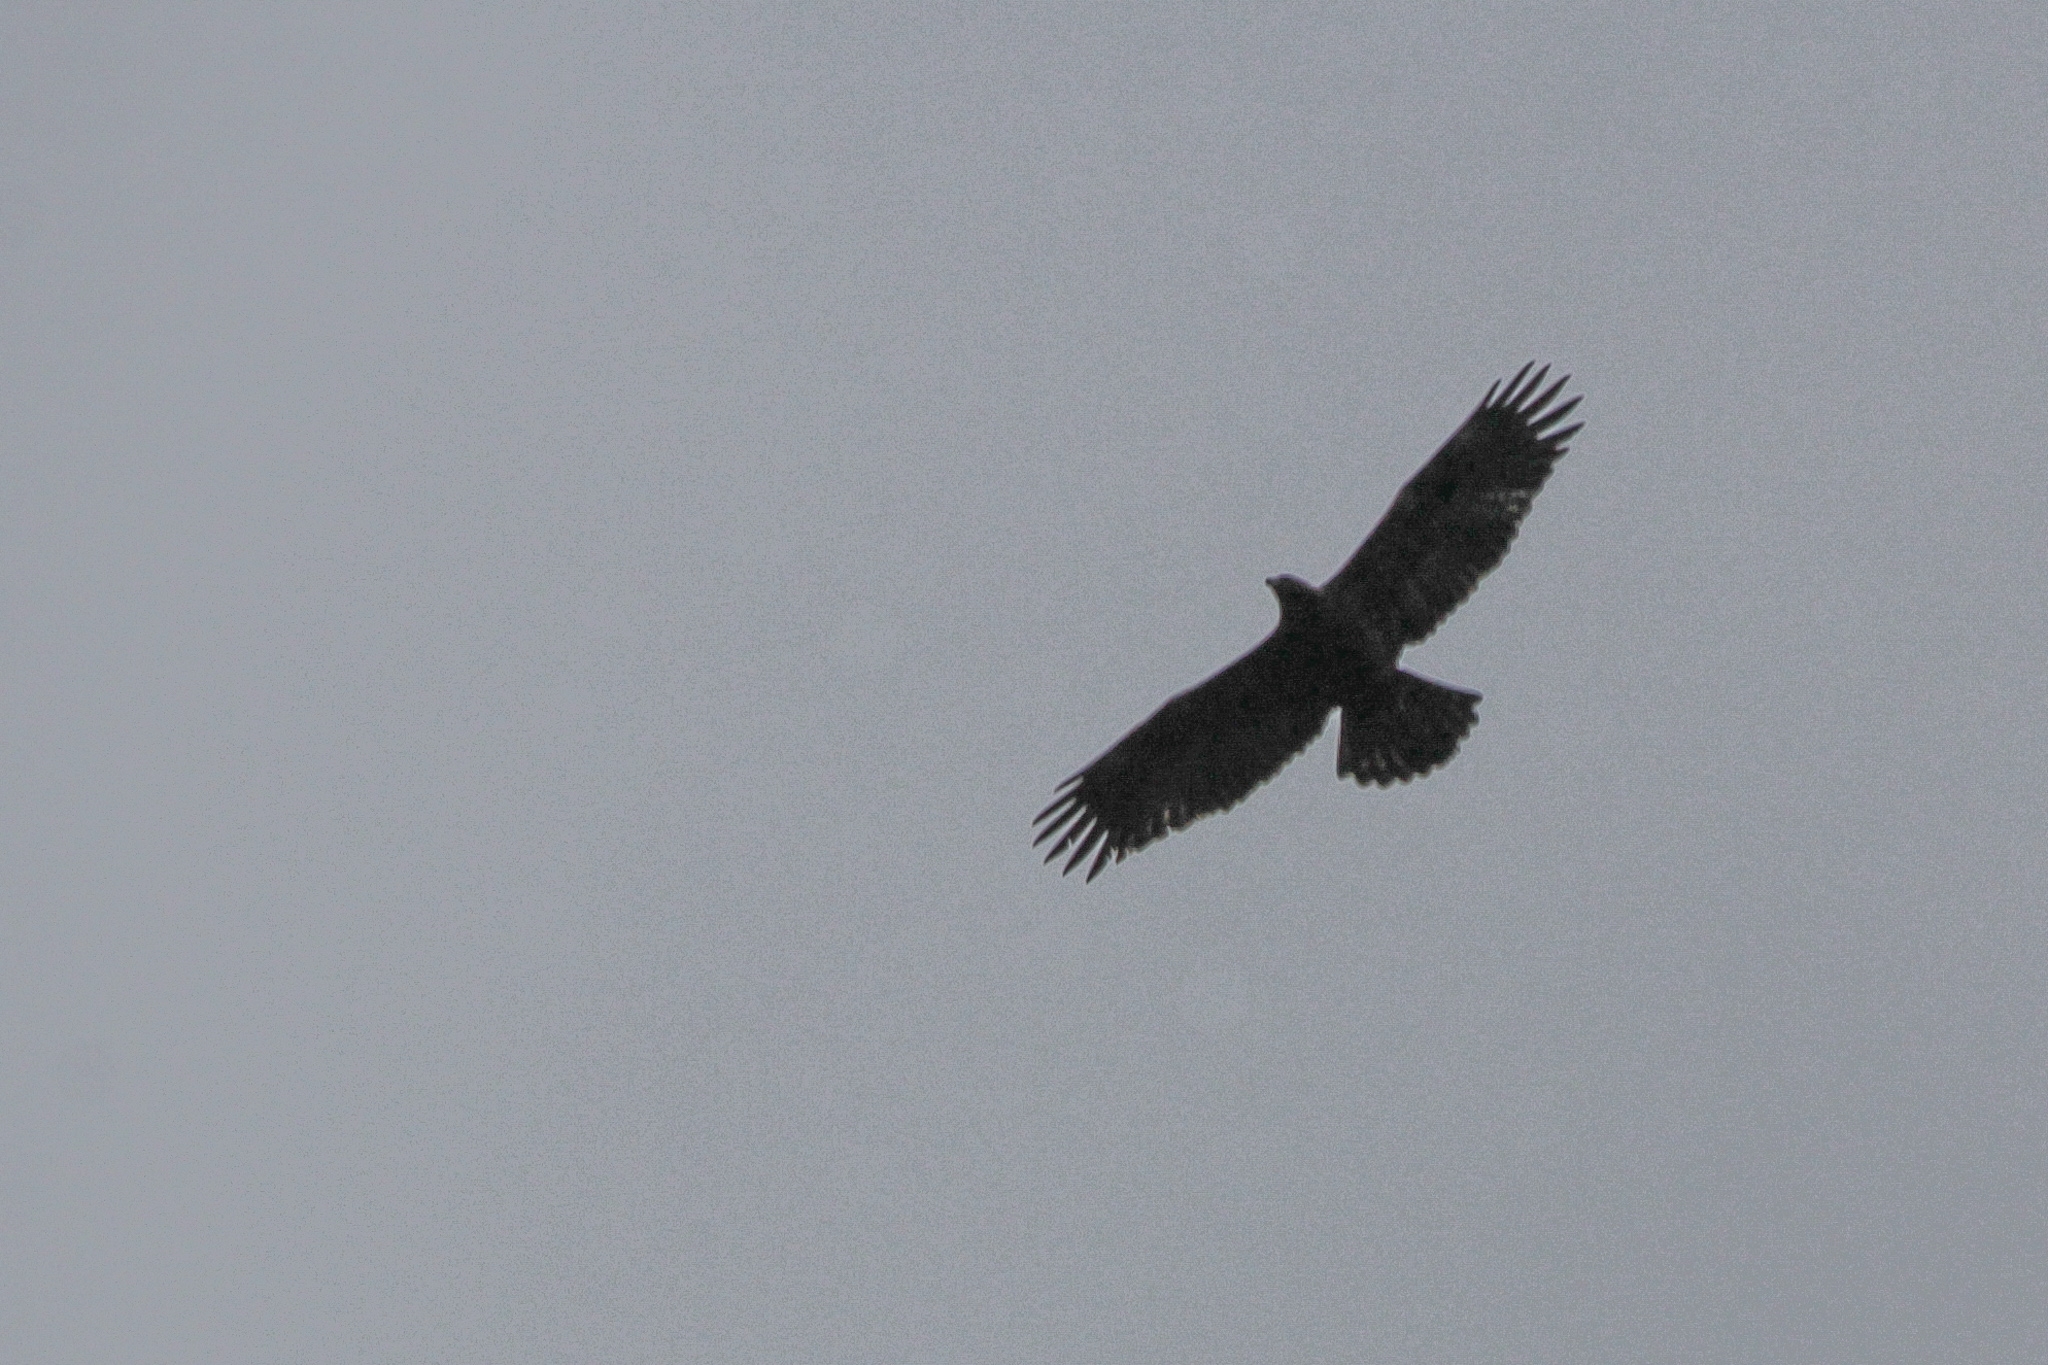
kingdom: Animalia
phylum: Chordata
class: Aves
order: Accipitriformes
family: Accipitridae
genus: Aquila
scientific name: Aquila chrysaetos
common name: Golden eagle
